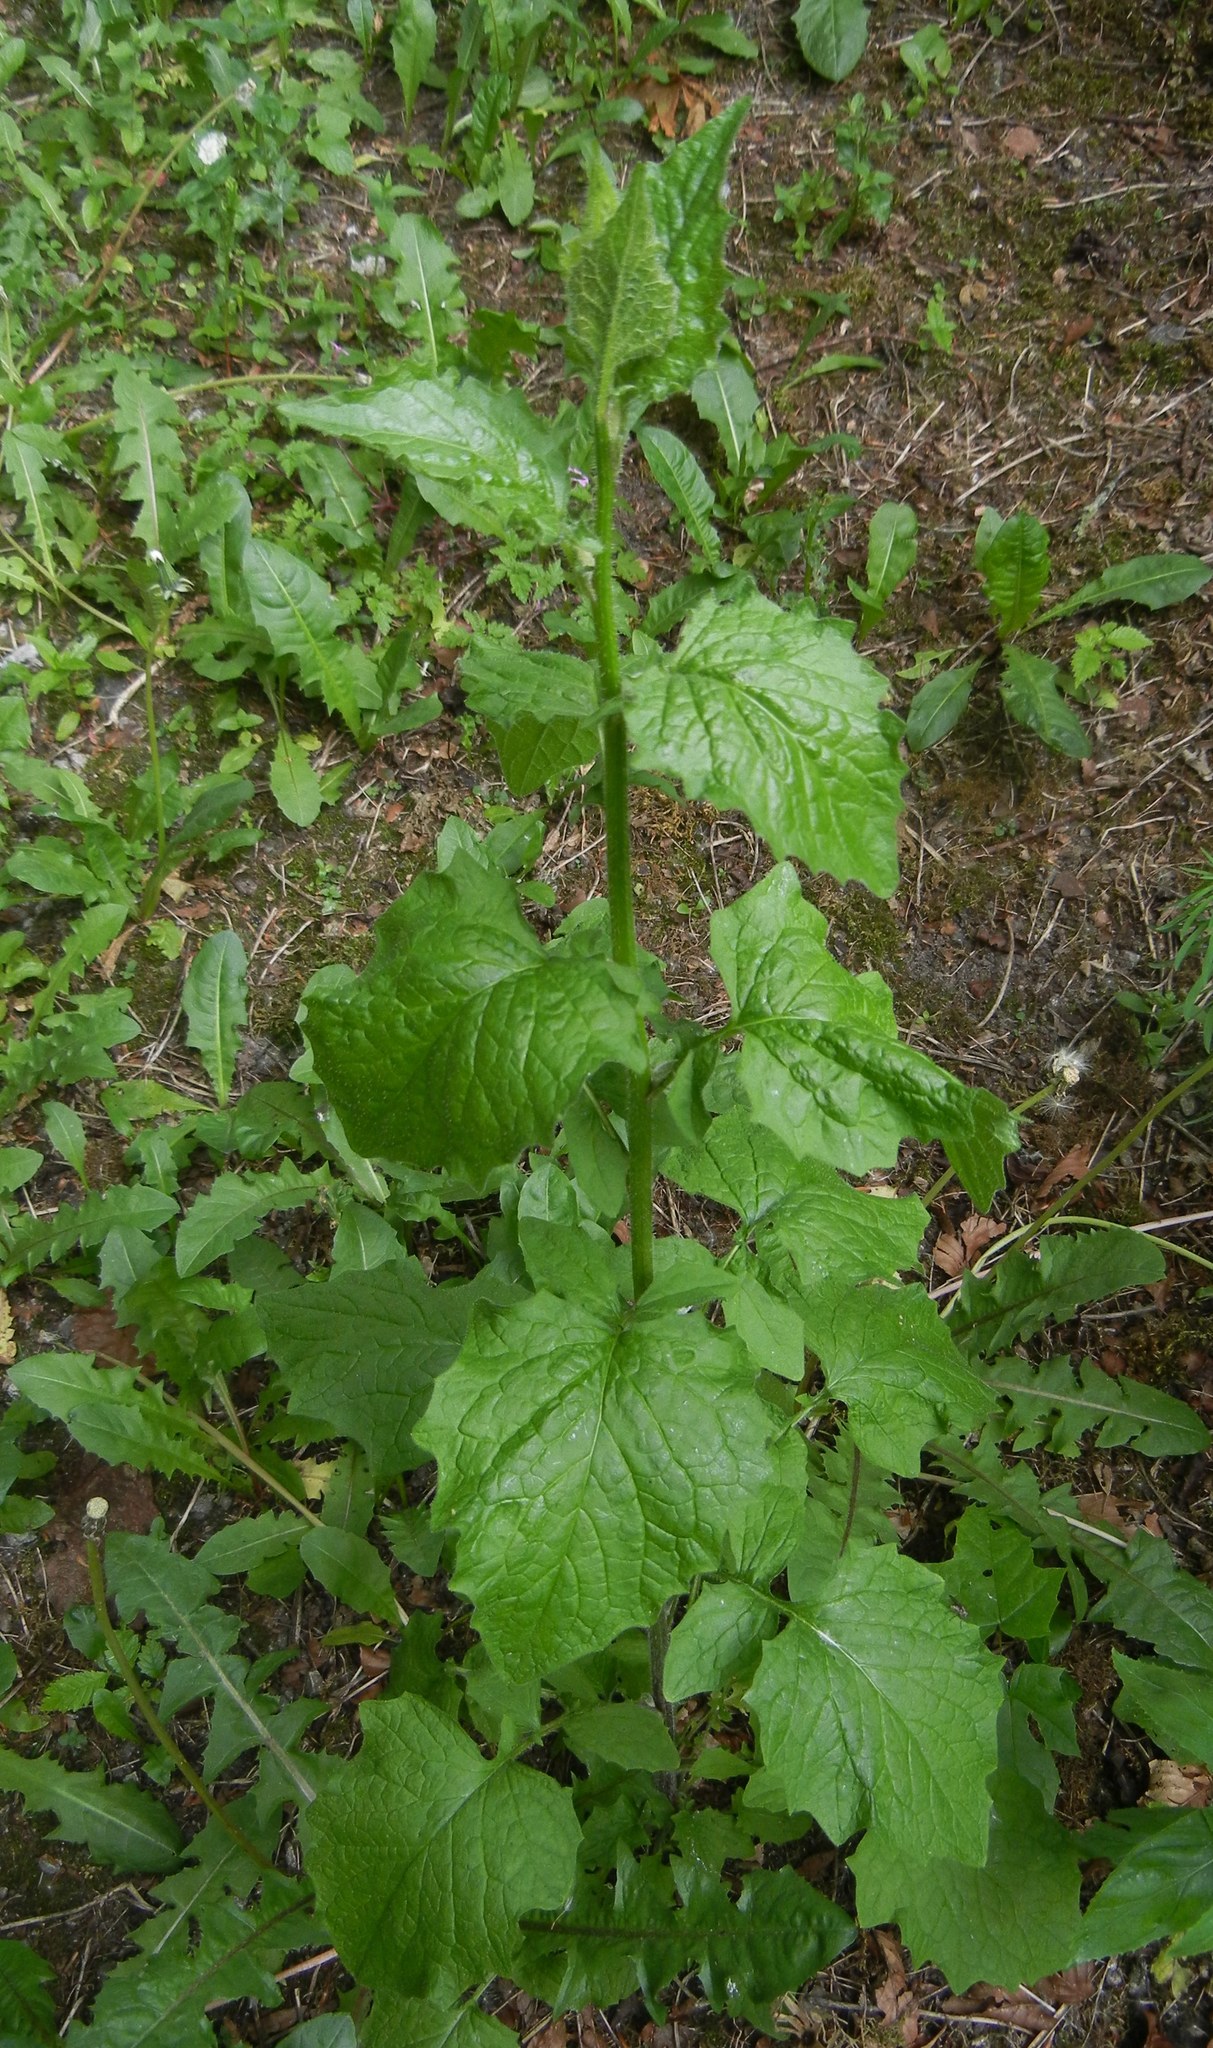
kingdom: Plantae
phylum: Tracheophyta
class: Magnoliopsida
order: Asterales
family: Asteraceae
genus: Lapsana
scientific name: Lapsana communis
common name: Nipplewort
